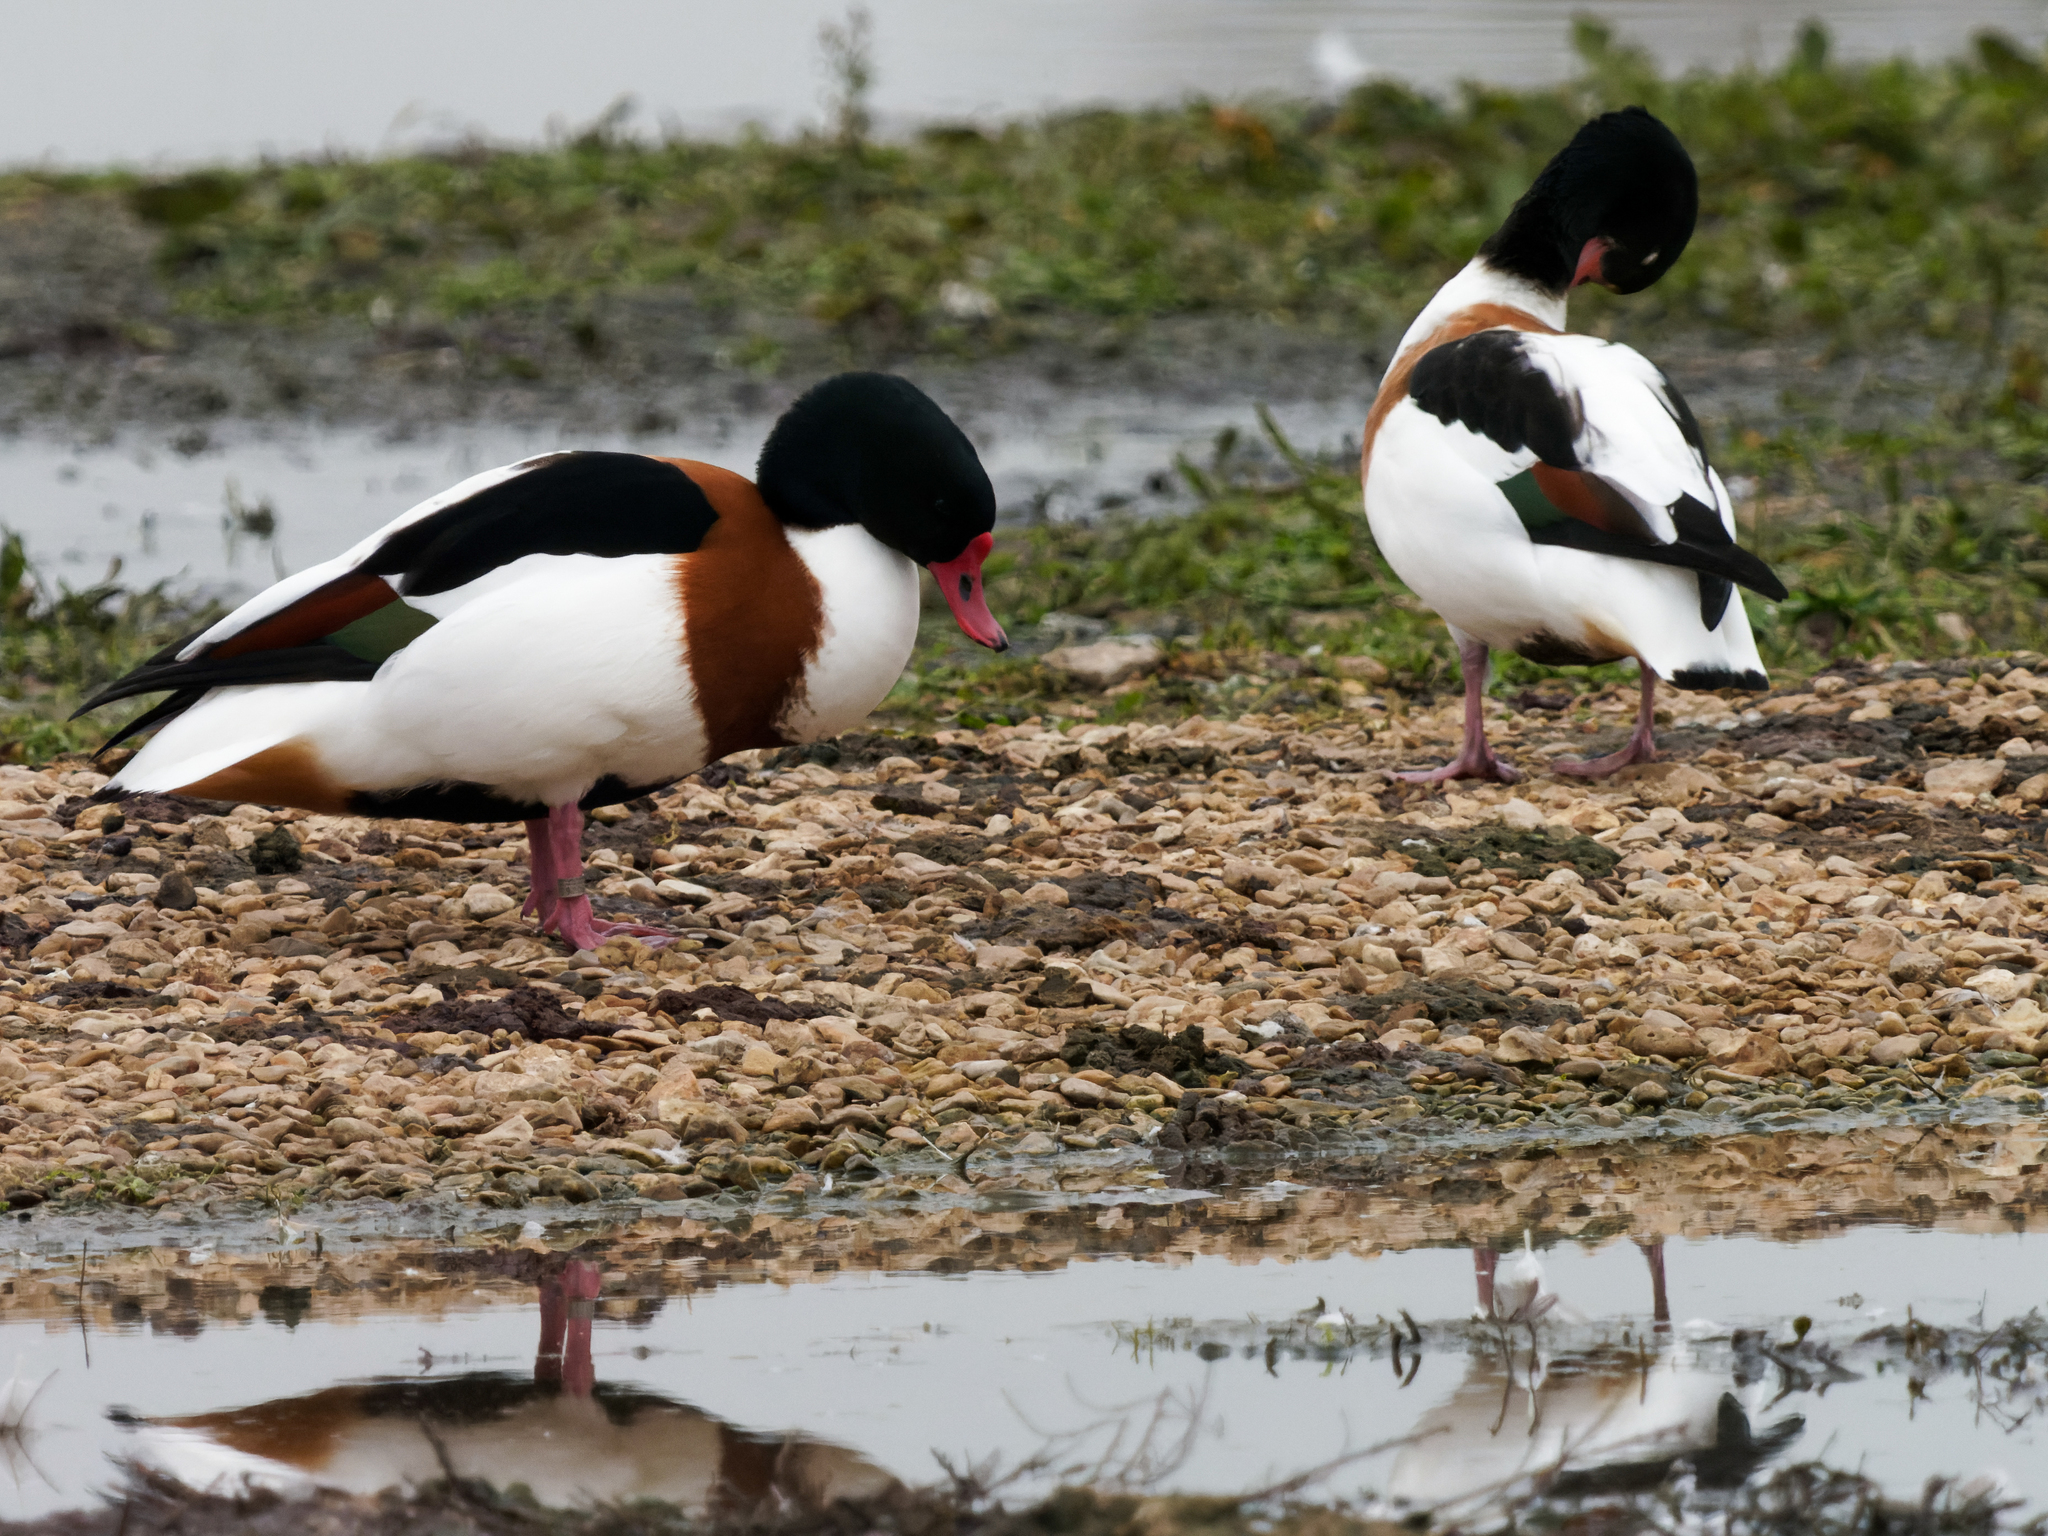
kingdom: Animalia
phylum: Chordata
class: Aves
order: Anseriformes
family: Anatidae
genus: Tadorna
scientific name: Tadorna tadorna
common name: Common shelduck
